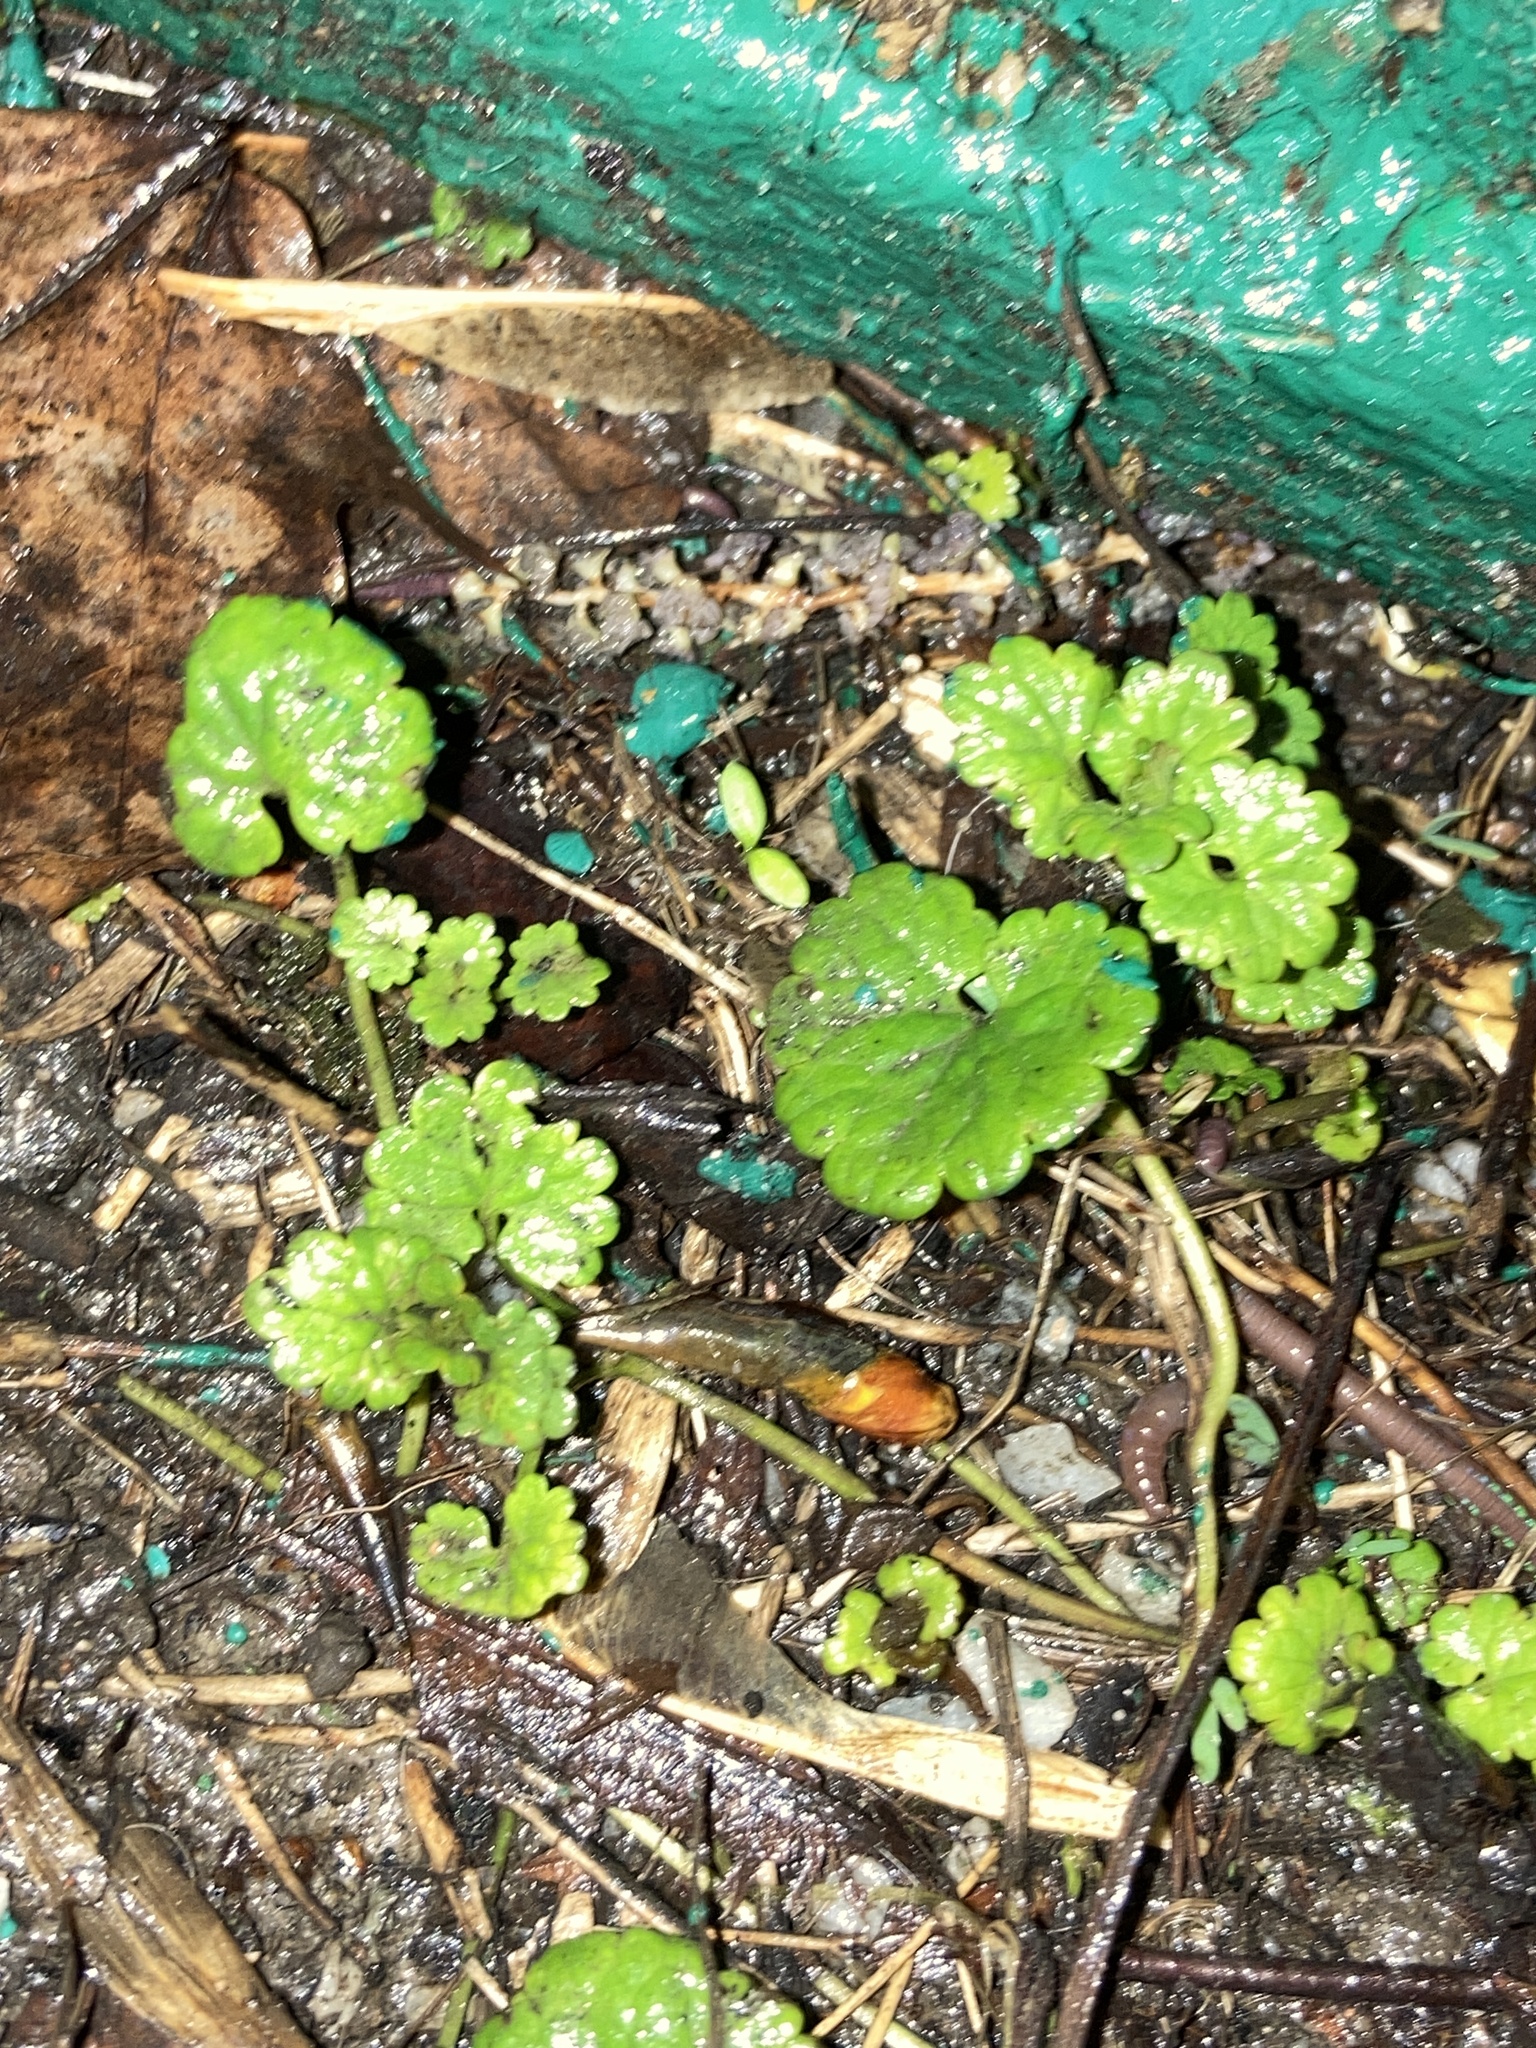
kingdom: Plantae
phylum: Tracheophyta
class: Magnoliopsida
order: Lamiales
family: Lamiaceae
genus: Glechoma
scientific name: Glechoma hederacea
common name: Ground ivy
